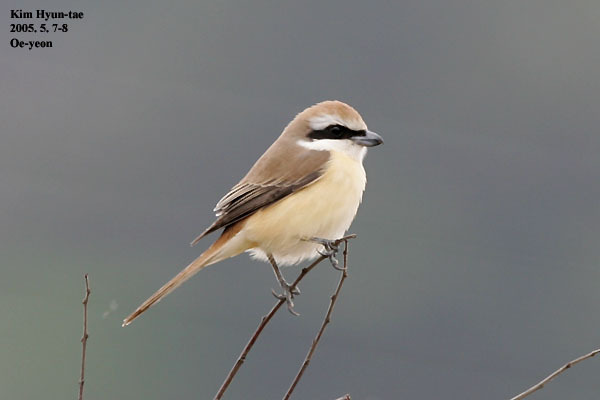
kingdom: Animalia
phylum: Chordata
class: Aves
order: Passeriformes
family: Laniidae
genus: Lanius
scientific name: Lanius cristatus
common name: Brown shrike
